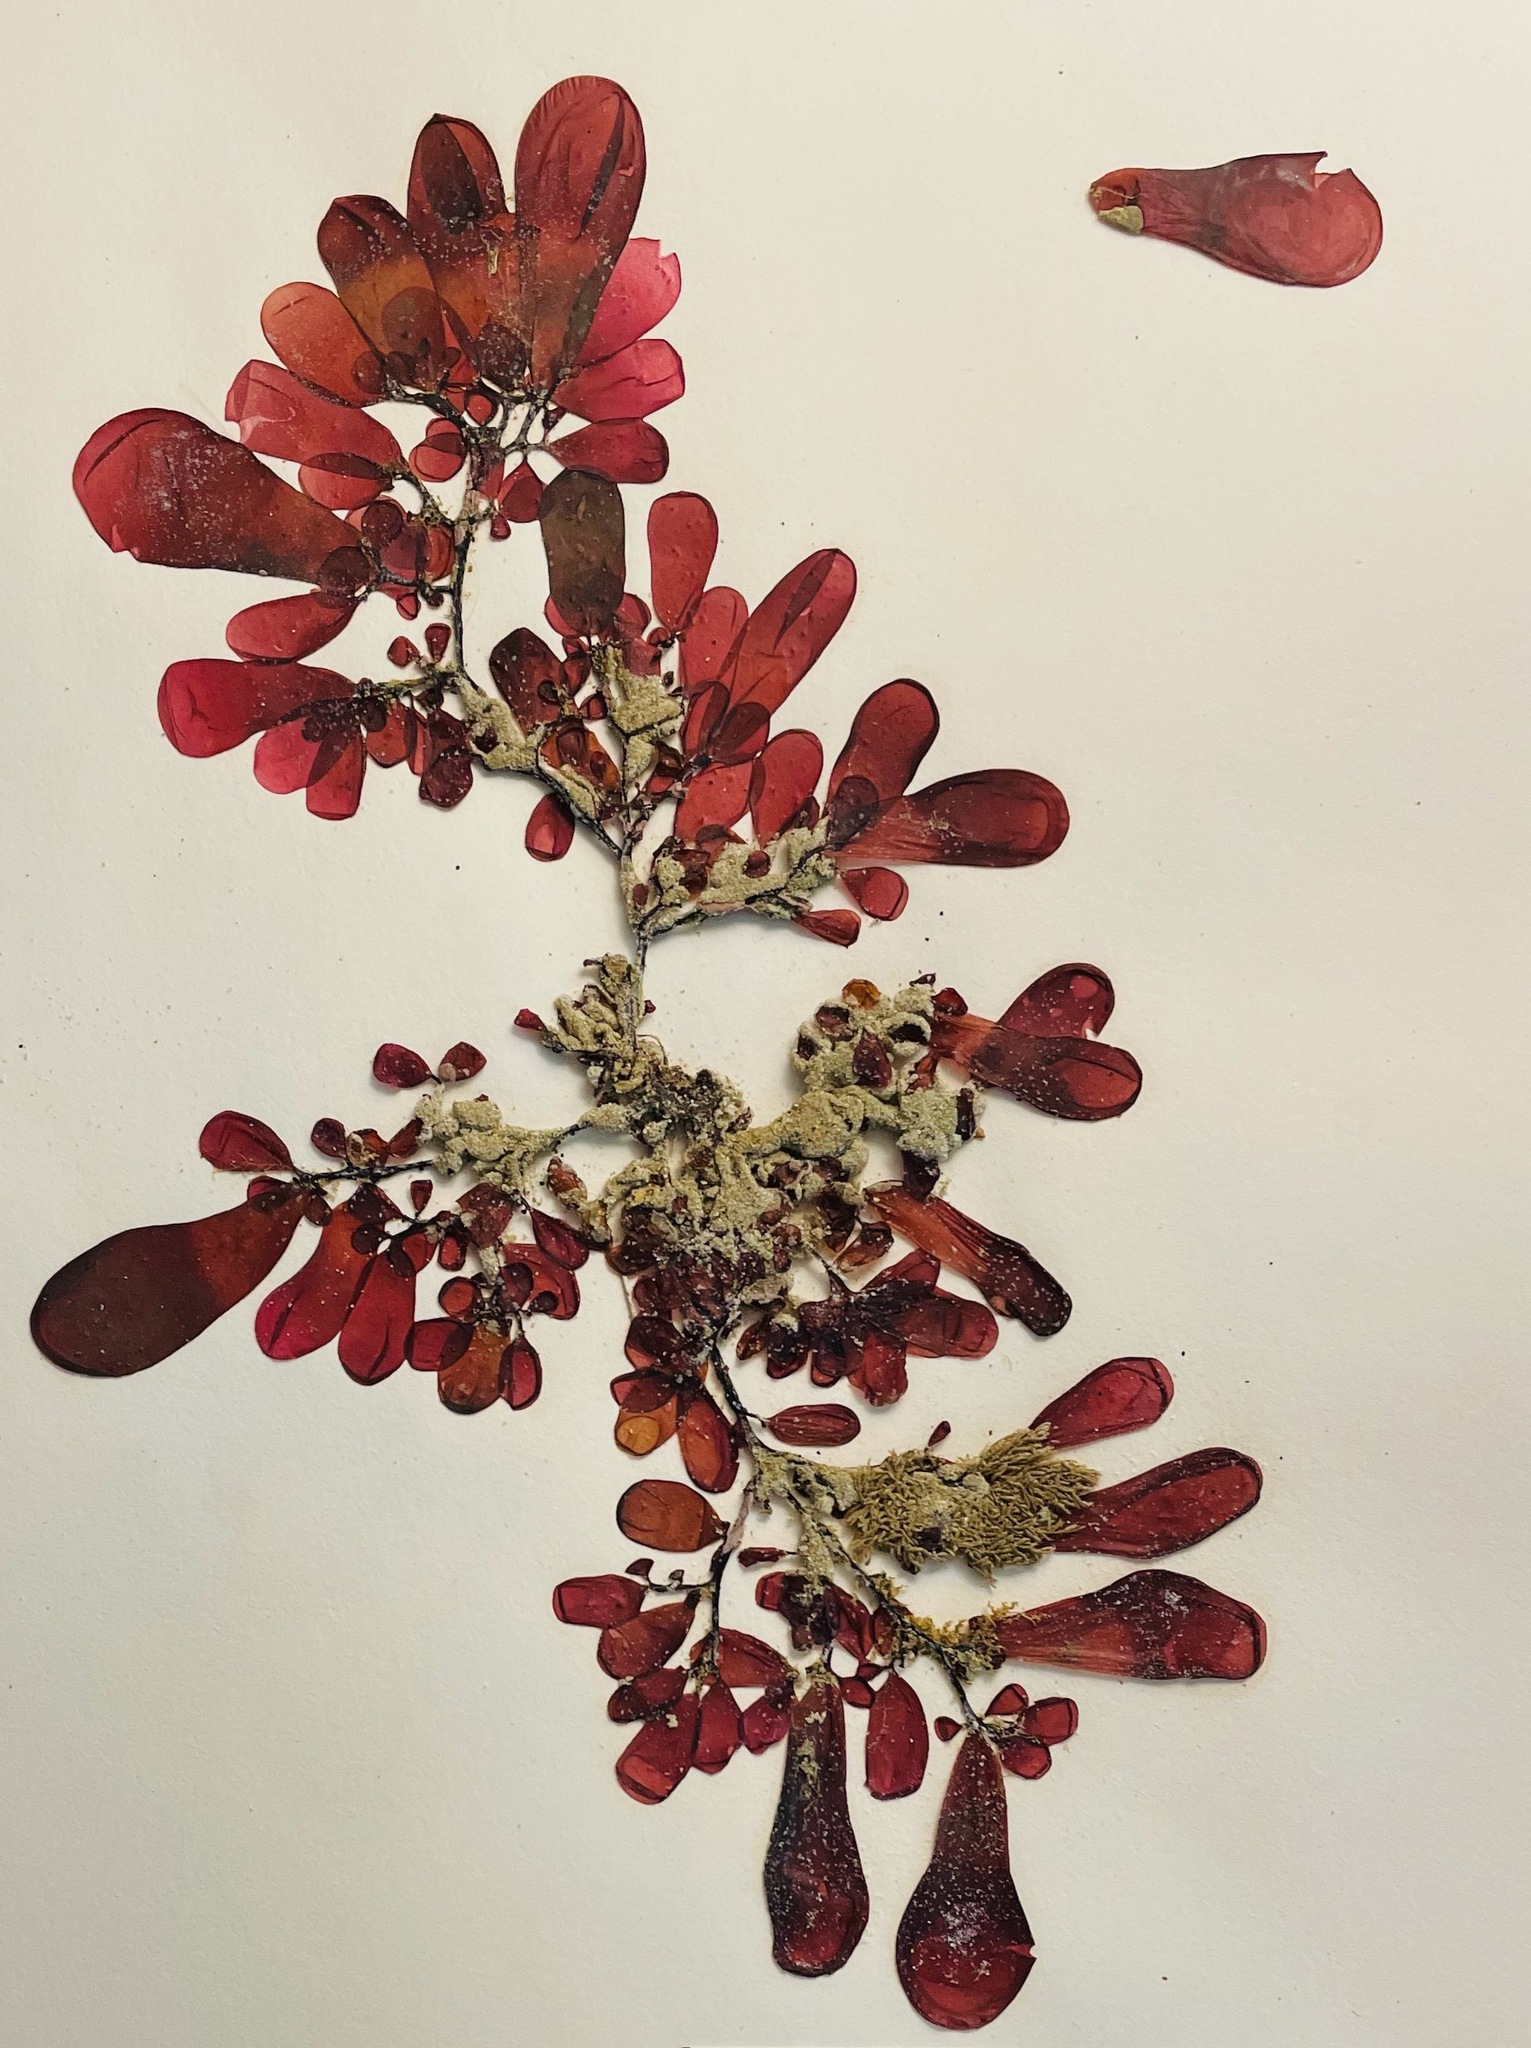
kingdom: Plantae
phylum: Rhodophyta
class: Florideophyceae
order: Rhodymeniales
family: Rhodymeniaceae
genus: Botryocladia
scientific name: Botryocladia pseudodichotoma
